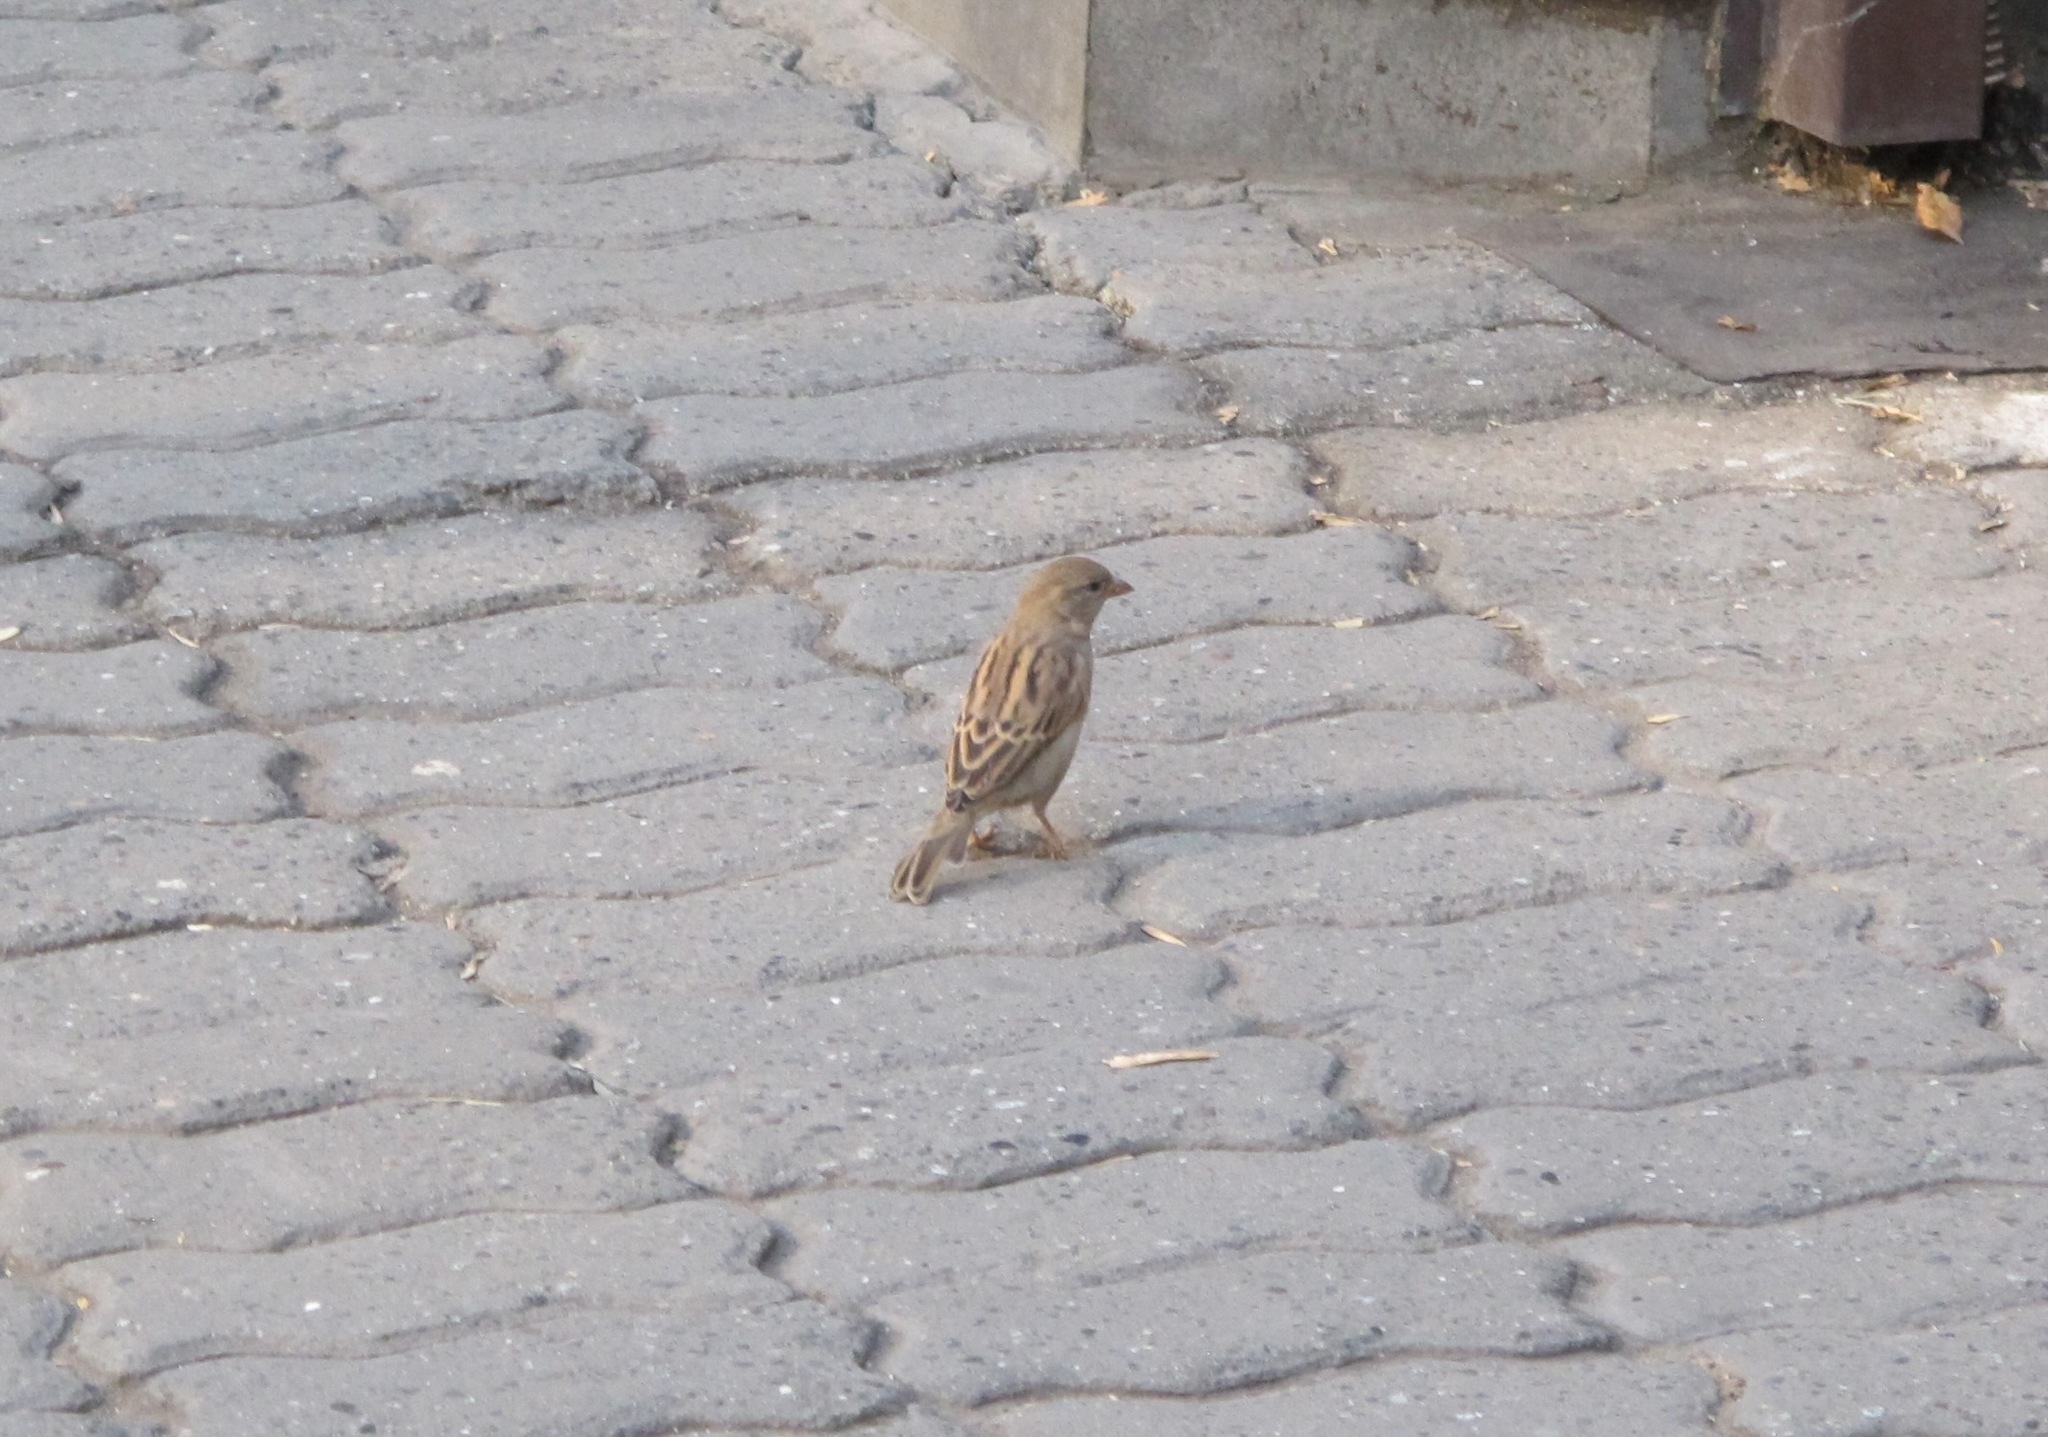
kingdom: Animalia
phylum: Chordata
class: Aves
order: Passeriformes
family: Passeridae
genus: Passer
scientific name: Passer domesticus
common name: House sparrow
